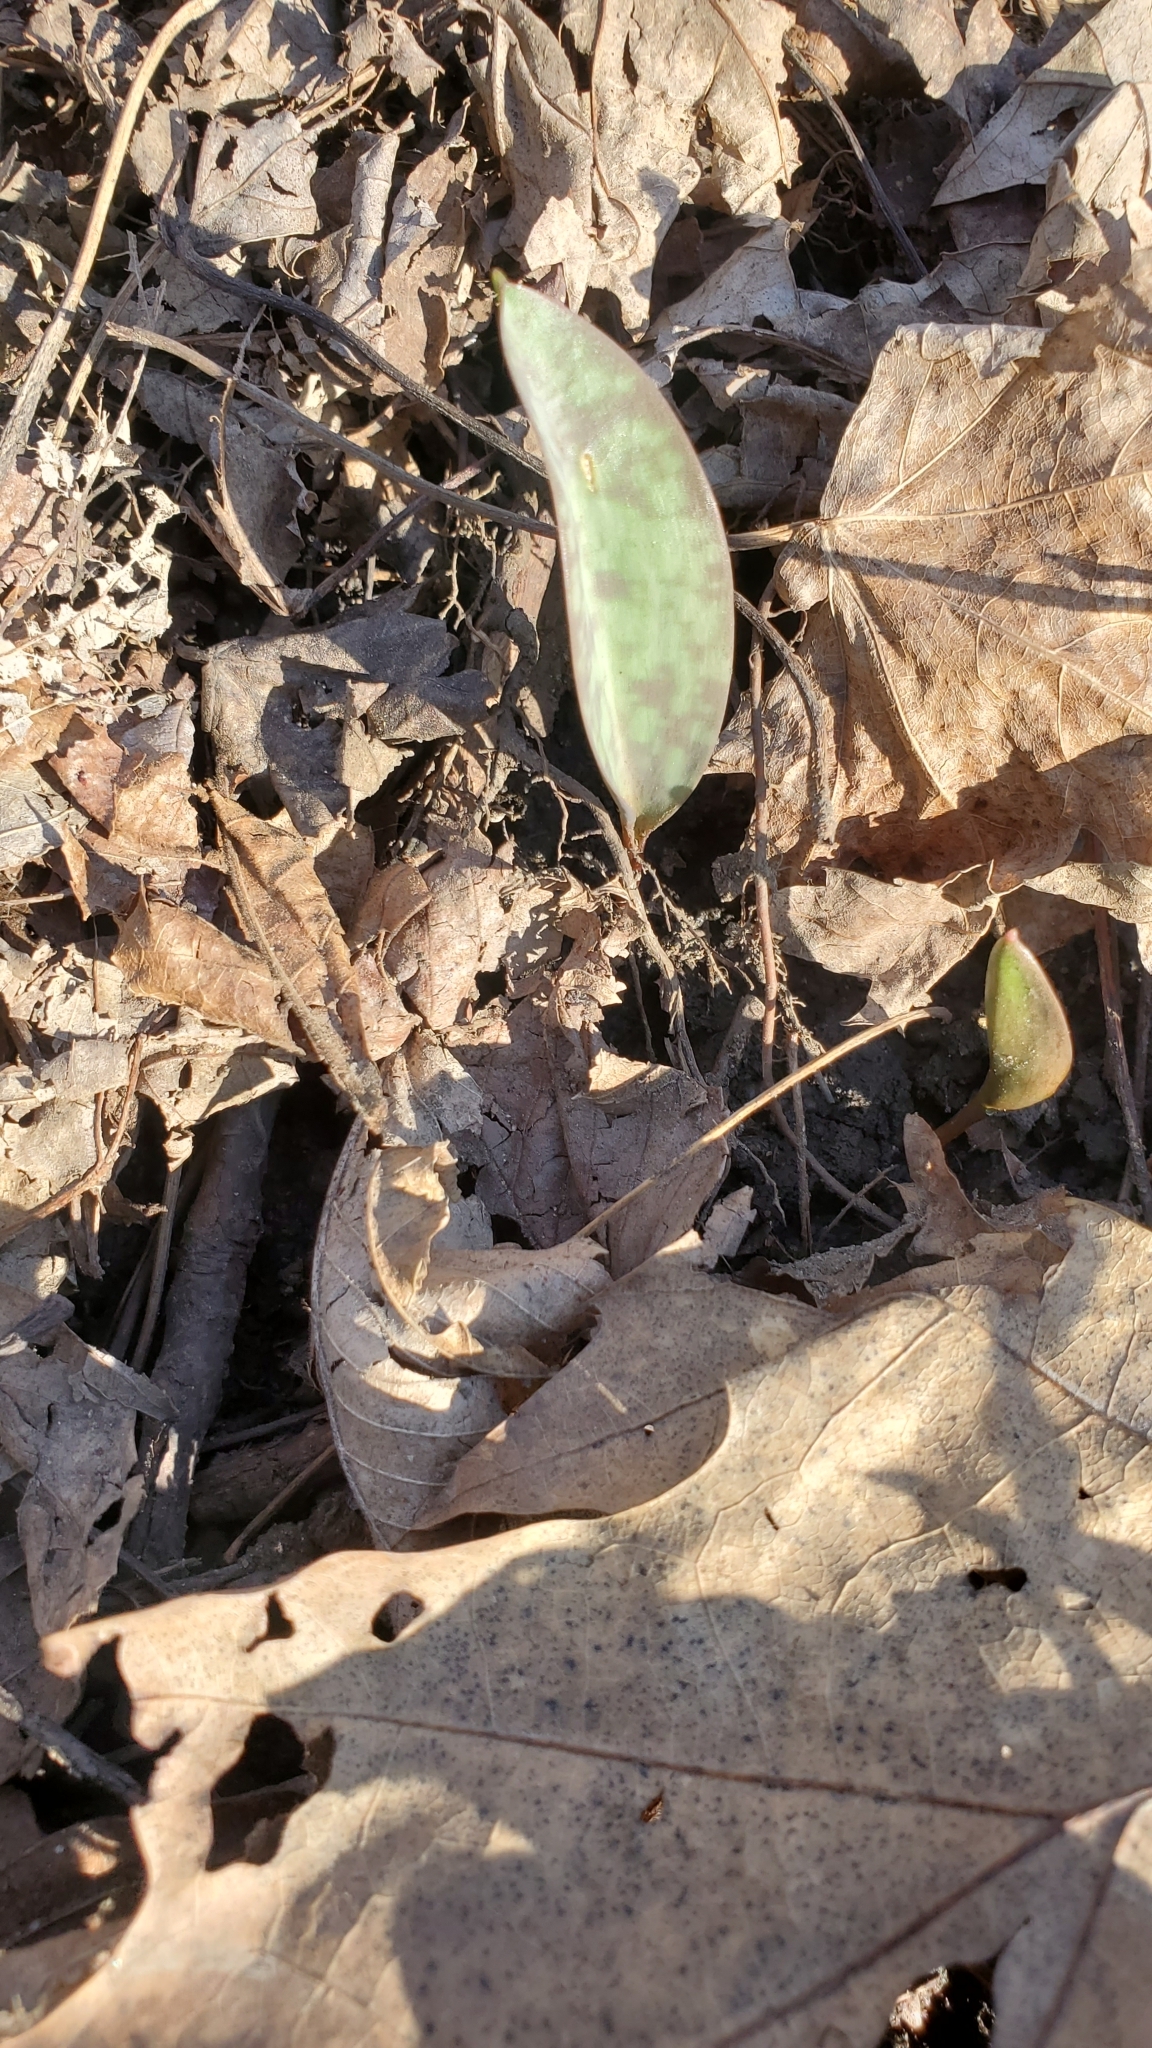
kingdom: Plantae
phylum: Tracheophyta
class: Liliopsida
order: Liliales
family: Liliaceae
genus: Erythronium
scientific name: Erythronium americanum
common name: Yellow adder's-tongue
